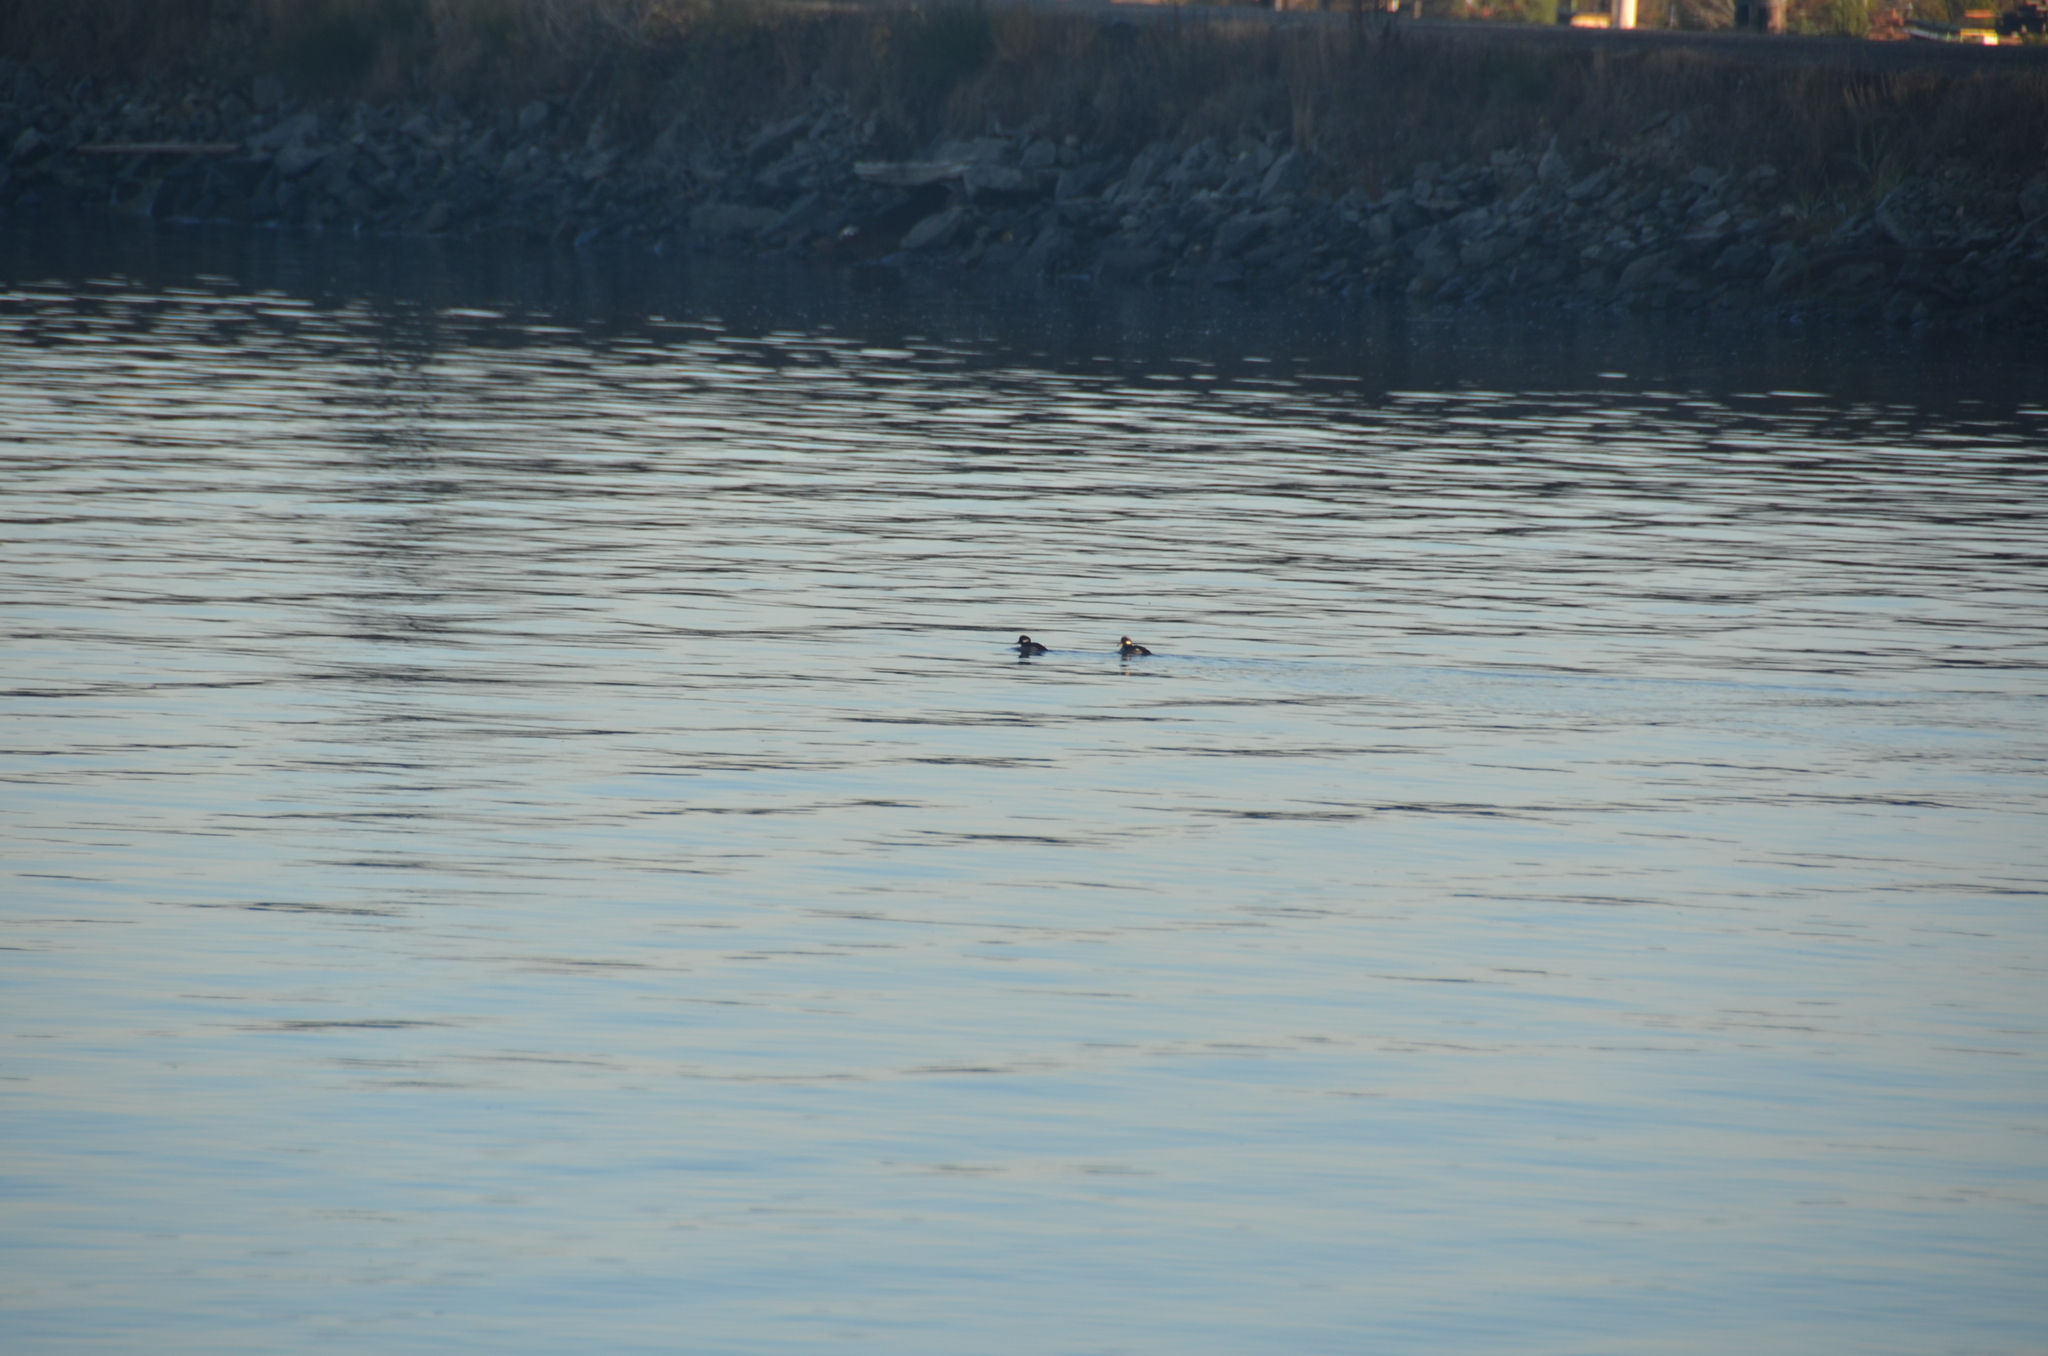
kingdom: Animalia
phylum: Chordata
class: Aves
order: Anseriformes
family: Anatidae
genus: Bucephala
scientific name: Bucephala albeola
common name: Bufflehead
